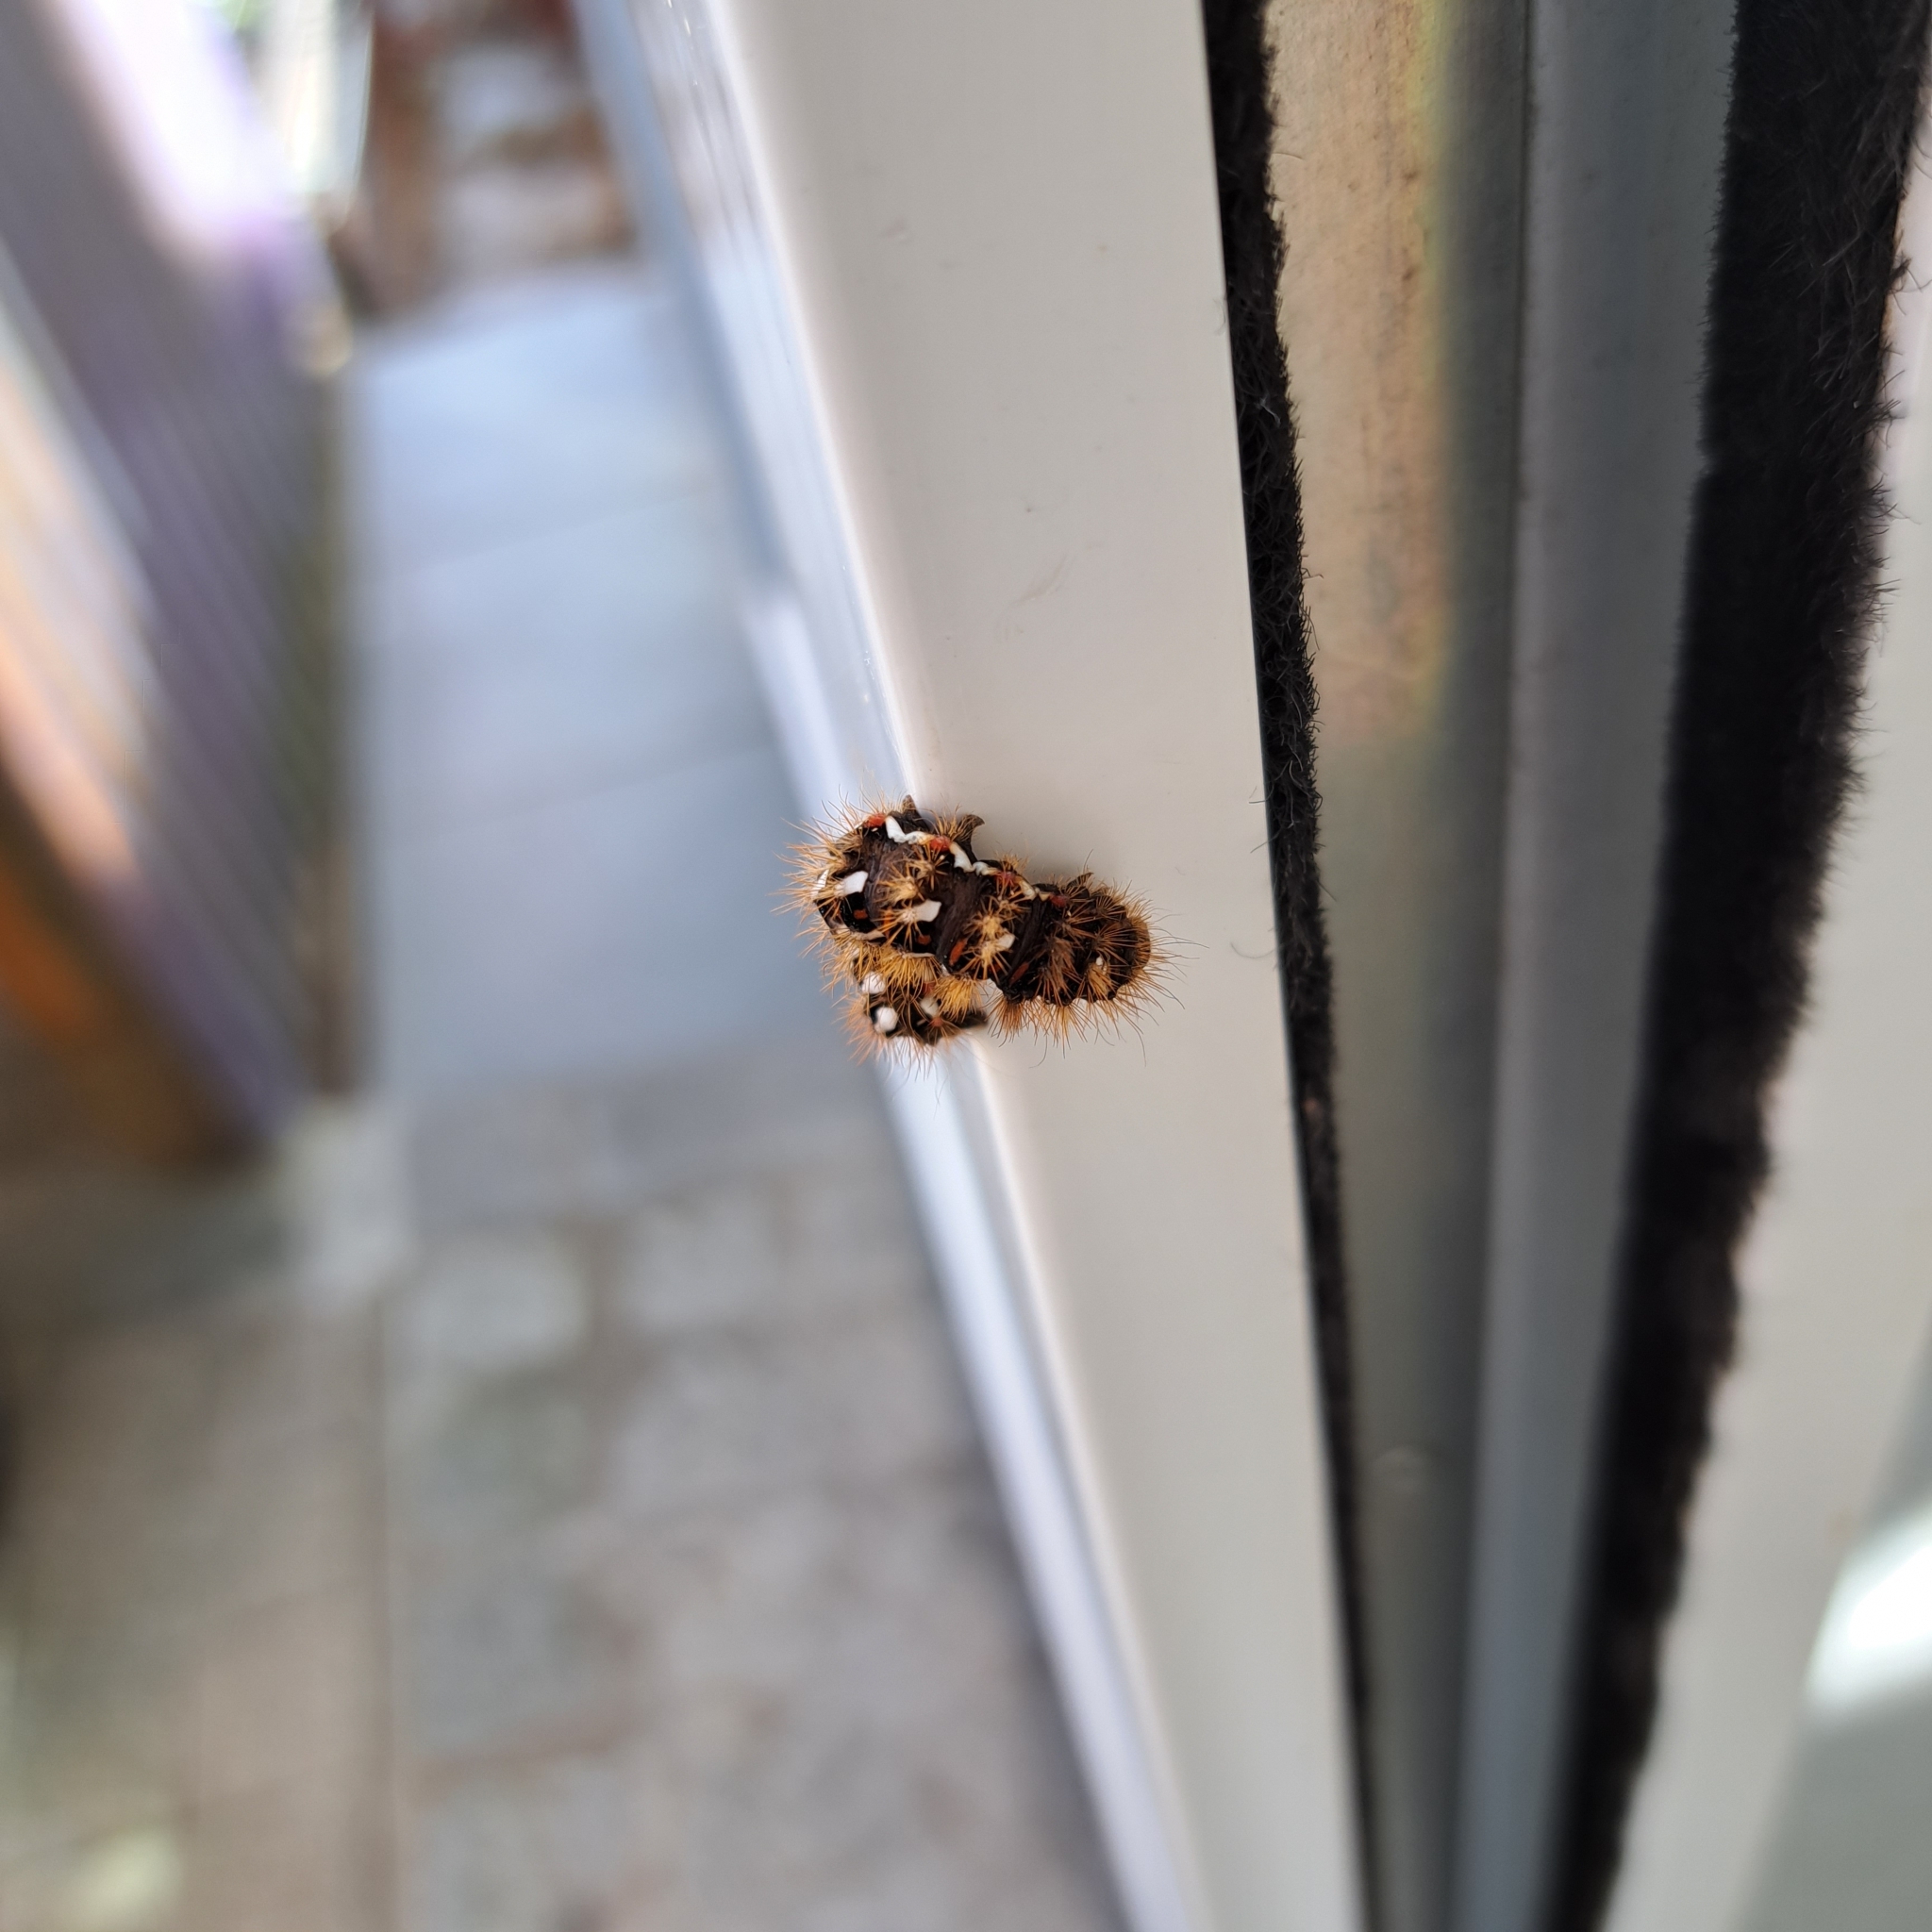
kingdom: Animalia
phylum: Arthropoda
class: Insecta
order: Lepidoptera
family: Noctuidae
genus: Acronicta
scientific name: Acronicta rumicis
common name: Knot grass
